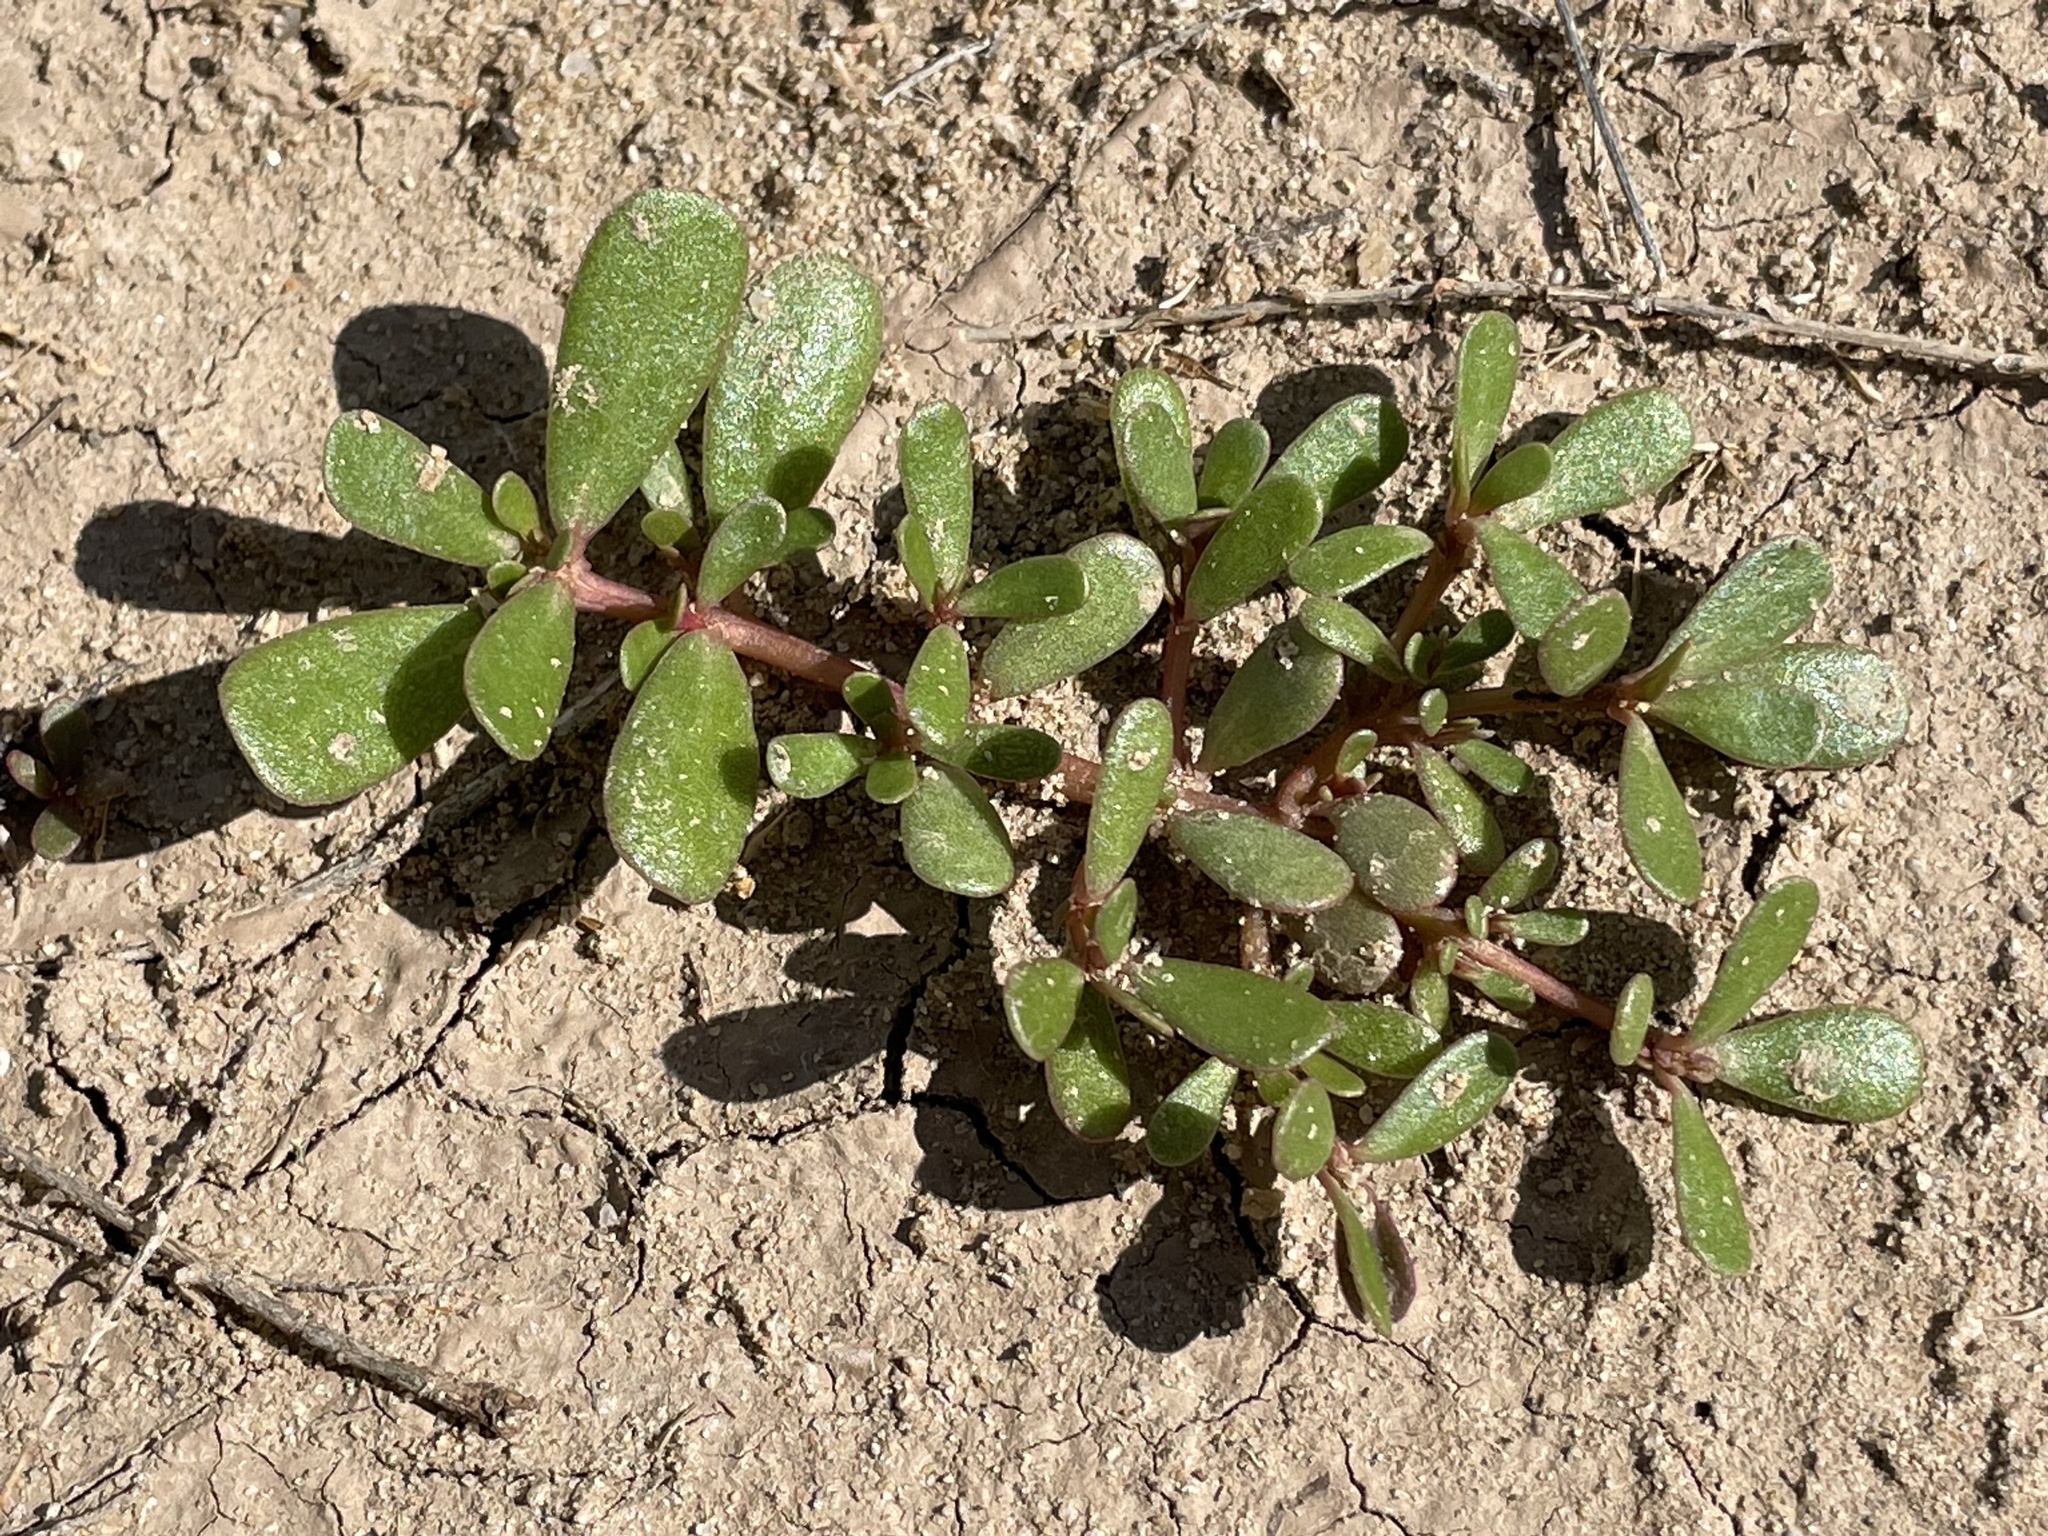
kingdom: Plantae
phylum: Tracheophyta
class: Magnoliopsida
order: Caryophyllales
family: Portulacaceae
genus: Portulaca
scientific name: Portulaca oleracea
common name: Common purslane
